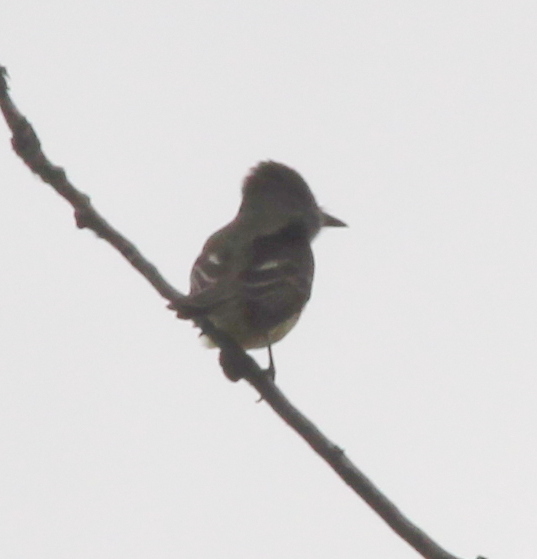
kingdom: Animalia
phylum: Chordata
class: Aves
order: Passeriformes
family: Tyrannidae
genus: Myiarchus
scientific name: Myiarchus crinitus
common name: Great crested flycatcher
